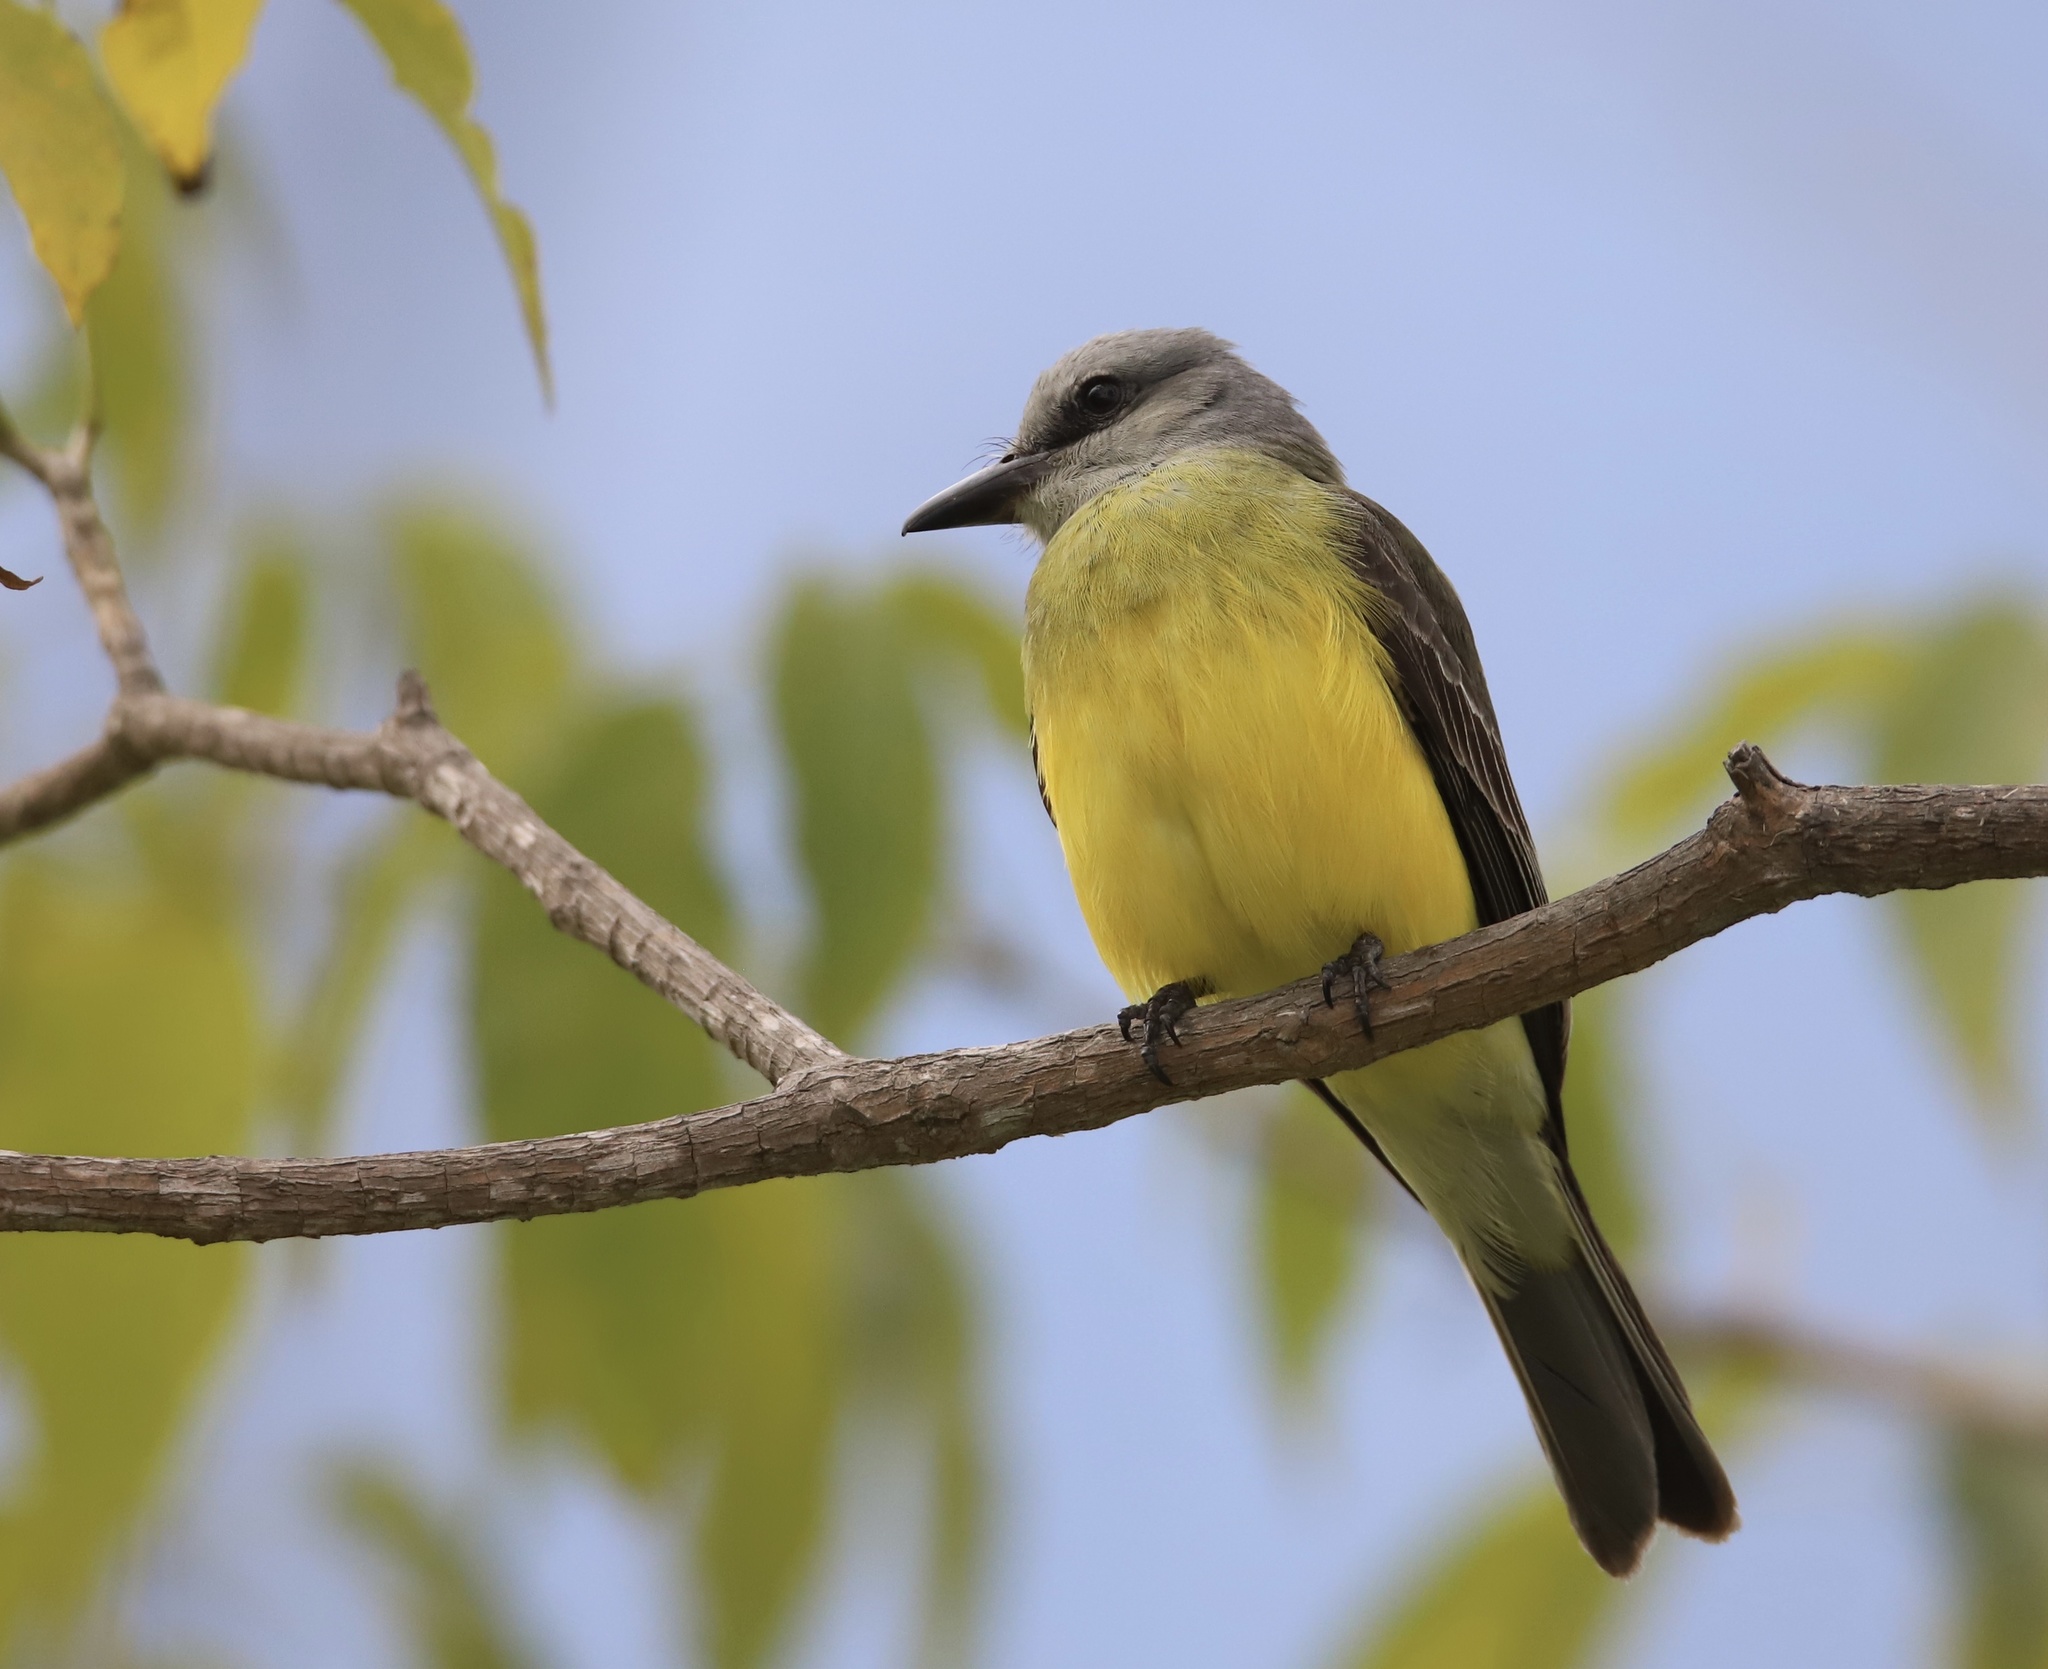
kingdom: Animalia
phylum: Chordata
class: Aves
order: Passeriformes
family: Tyrannidae
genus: Tyrannus
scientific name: Tyrannus melancholicus
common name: Tropical kingbird
